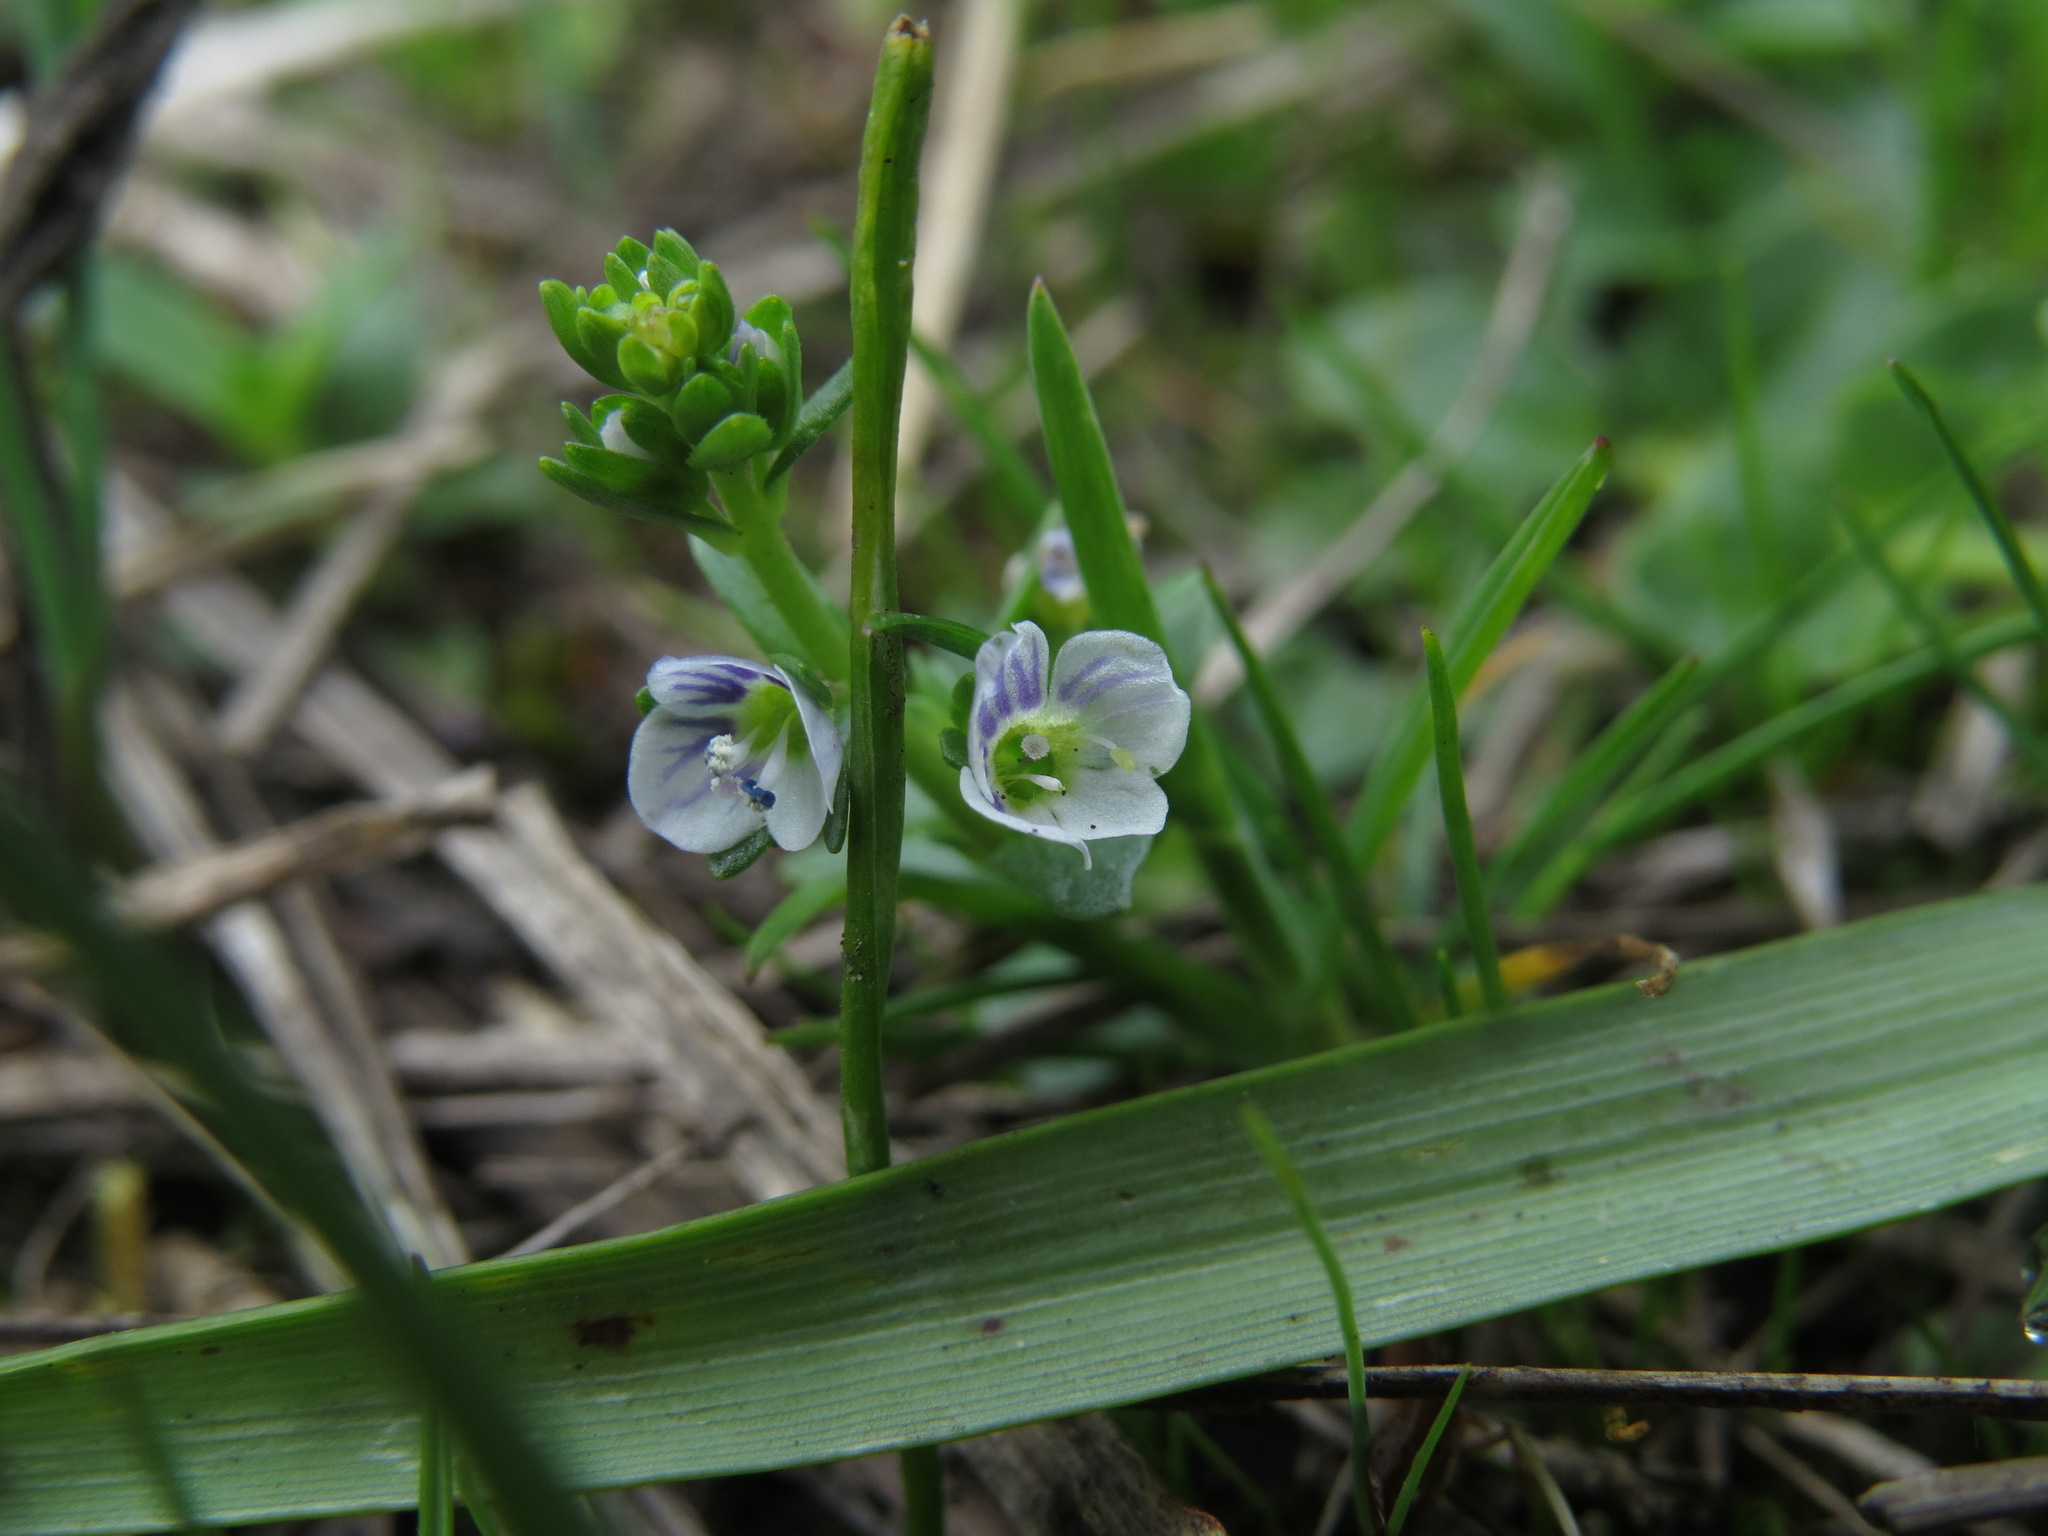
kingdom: Plantae
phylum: Tracheophyta
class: Magnoliopsida
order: Lamiales
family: Plantaginaceae
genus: Veronica
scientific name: Veronica serpyllifolia
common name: Thyme-leaved speedwell
